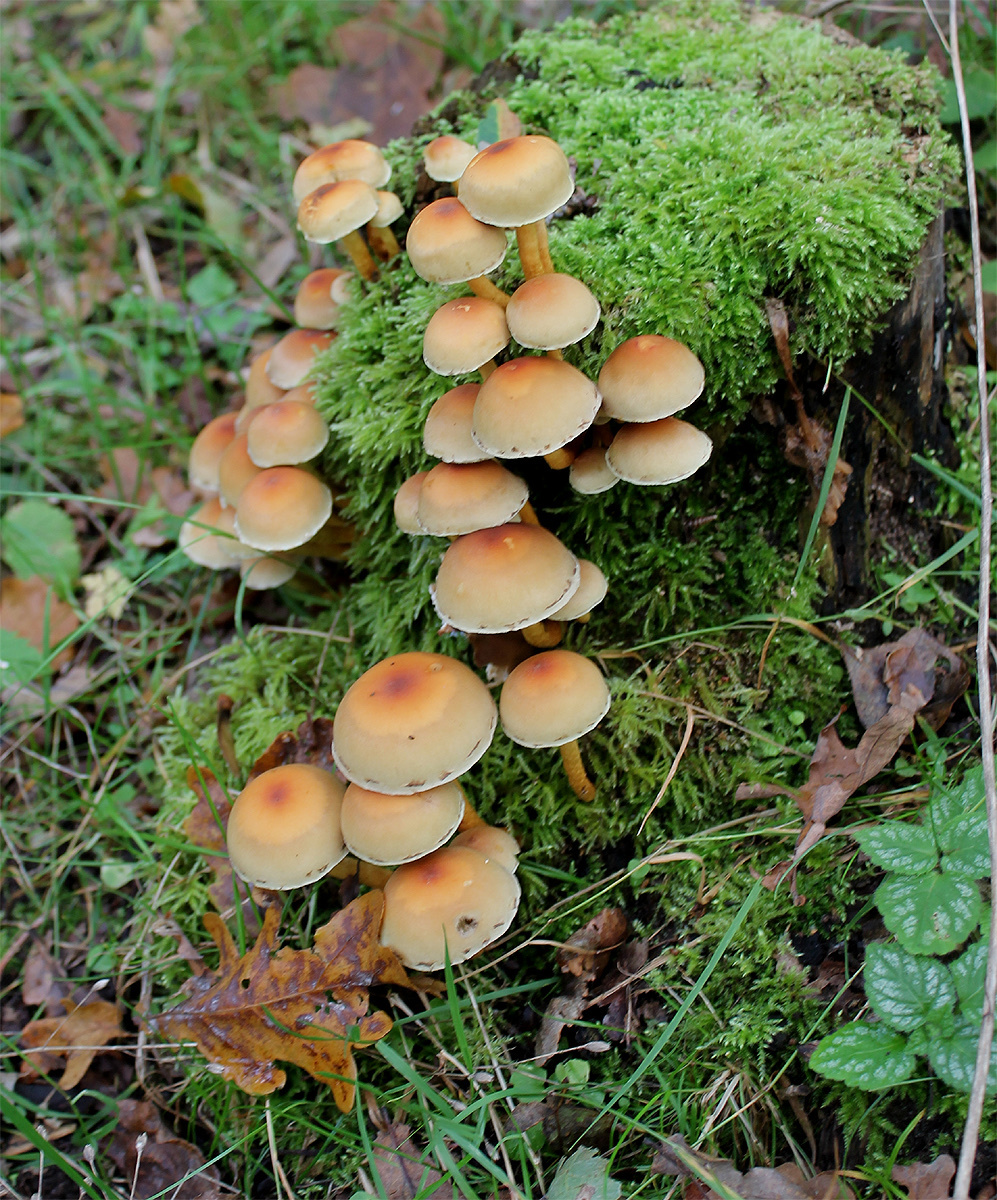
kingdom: Fungi
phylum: Basidiomycota
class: Agaricomycetes
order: Agaricales
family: Strophariaceae
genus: Hypholoma
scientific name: Hypholoma fasciculare
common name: Sulphur tuft
